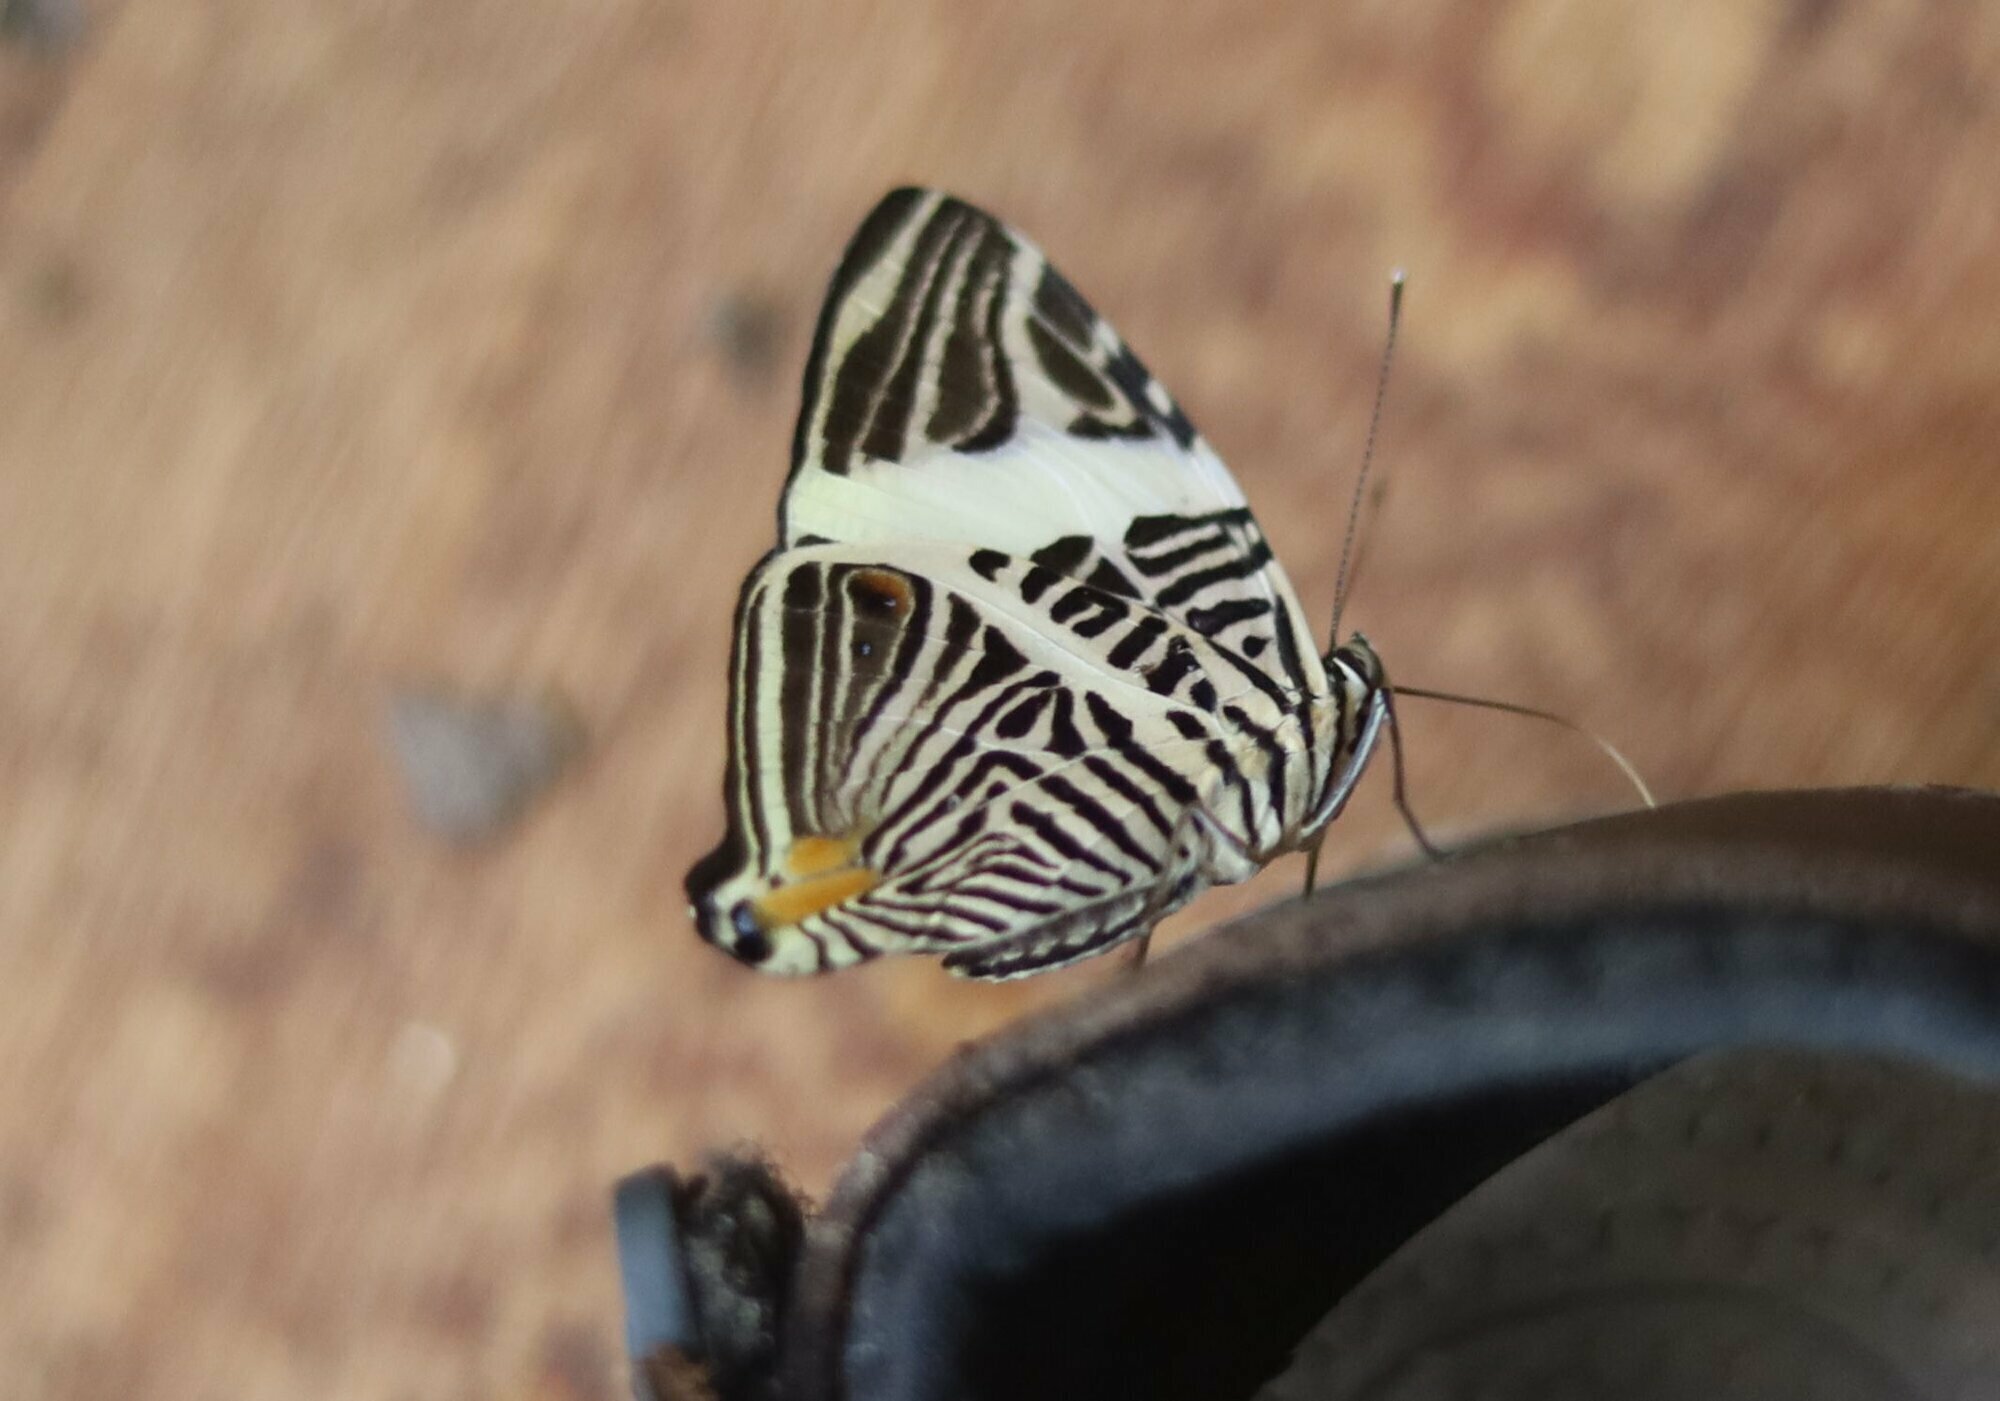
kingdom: Animalia
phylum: Arthropoda
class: Insecta
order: Lepidoptera
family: Nymphalidae
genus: Colobura
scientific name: Colobura dirce
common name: Dirce beauty
